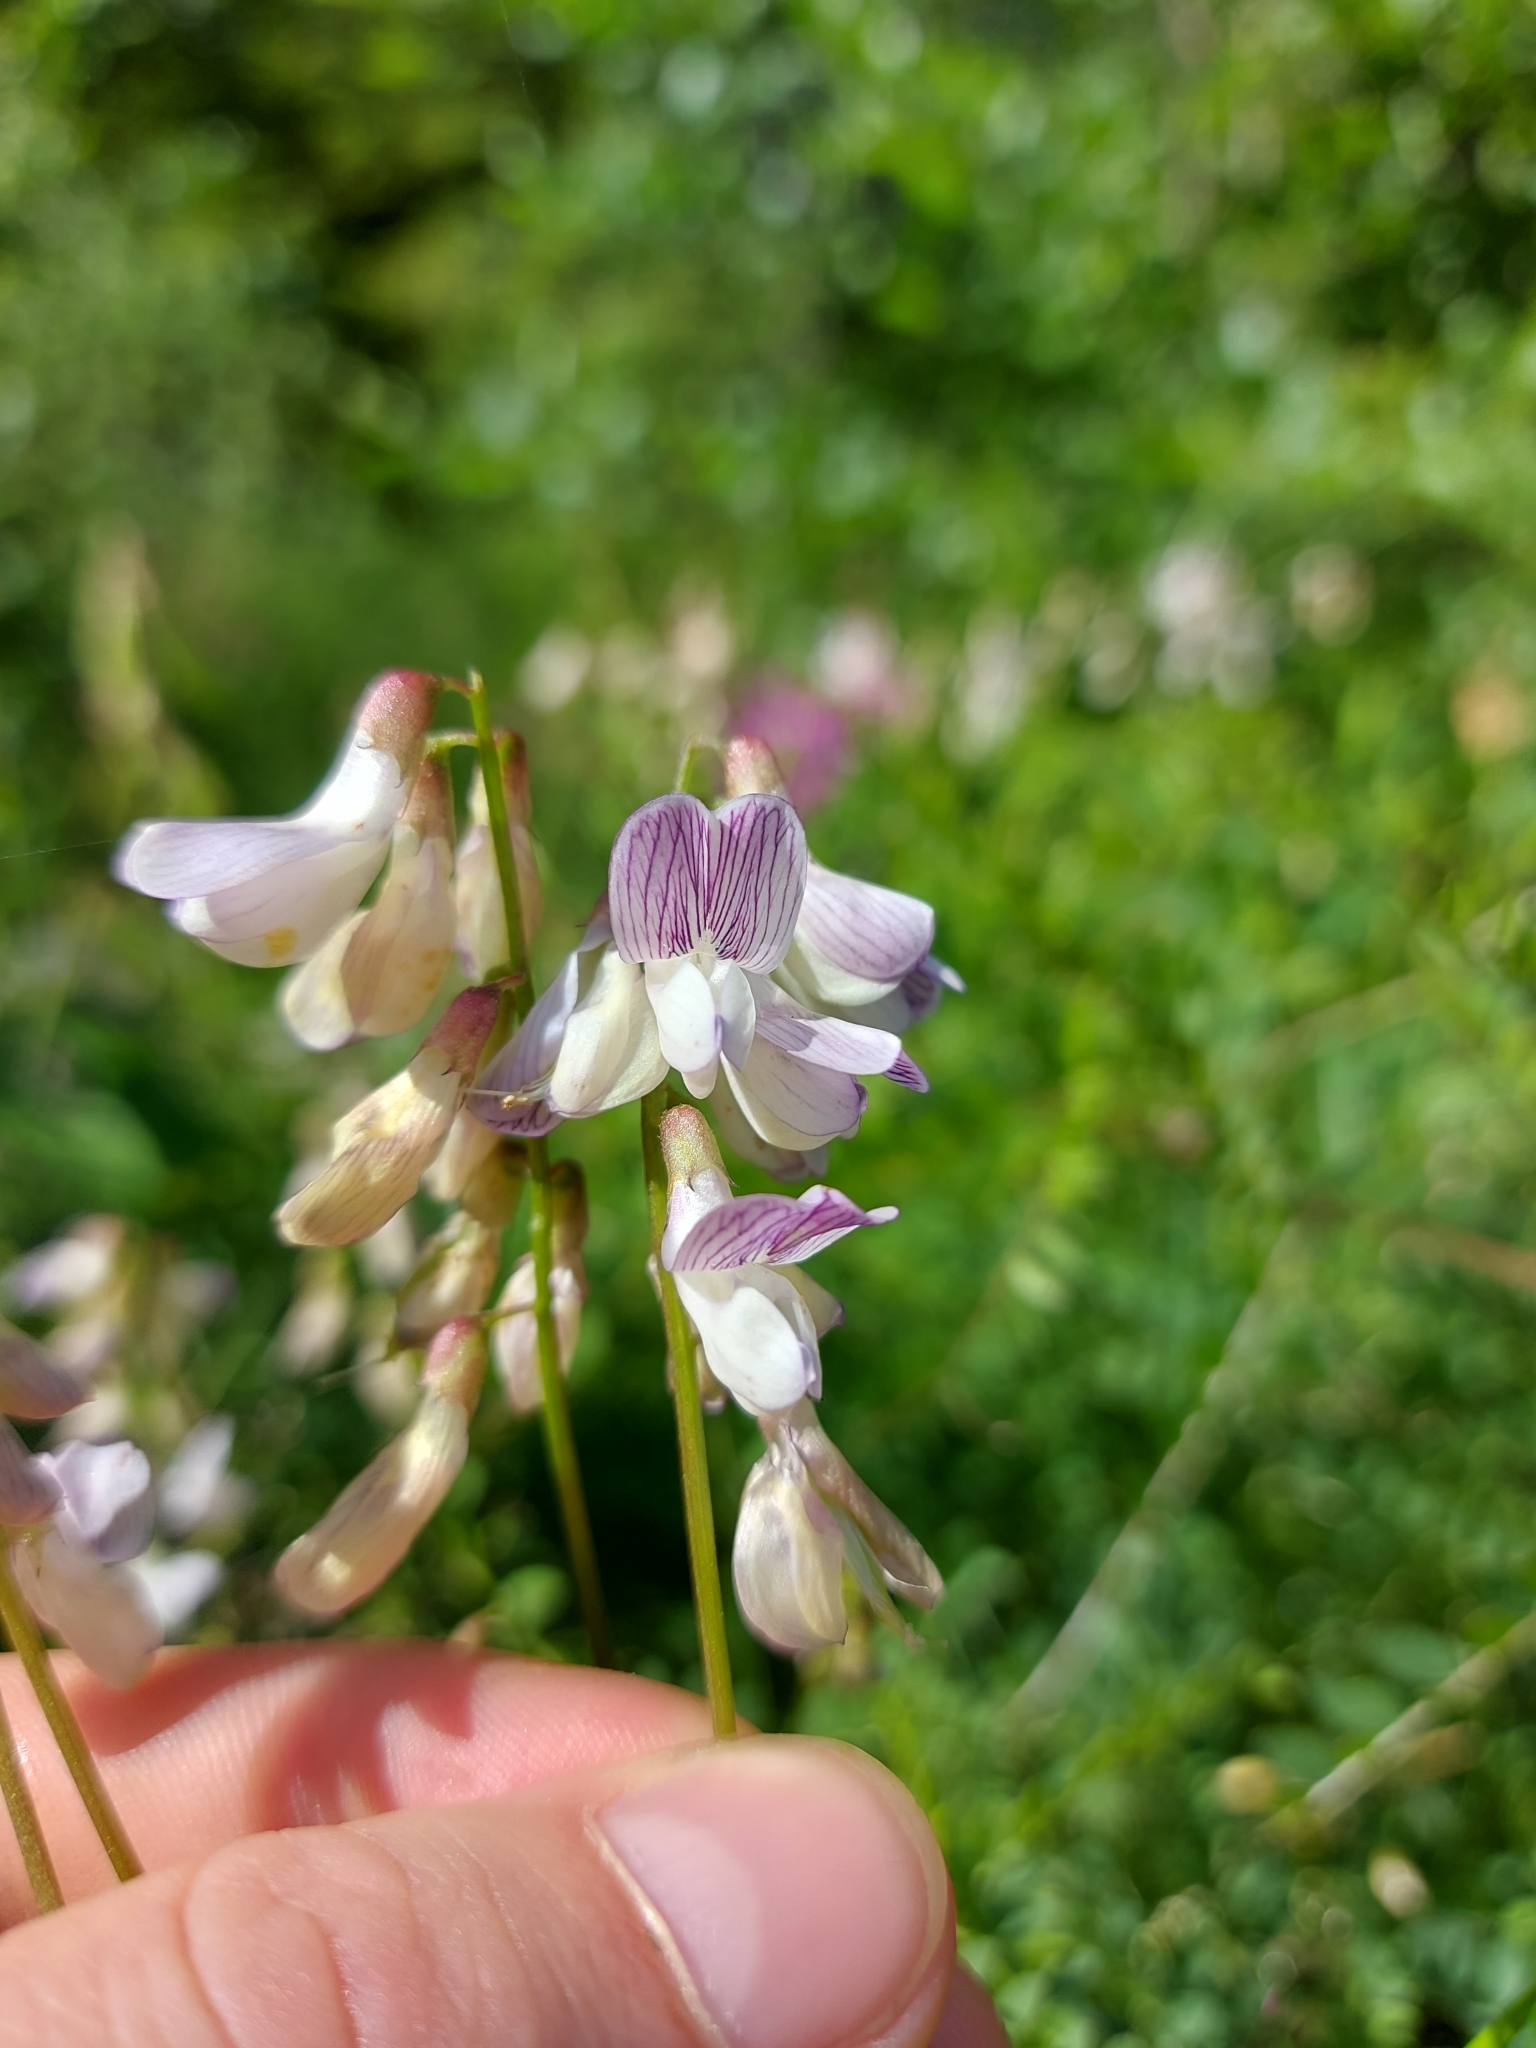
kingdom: Plantae
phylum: Tracheophyta
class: Magnoliopsida
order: Fabales
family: Fabaceae
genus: Vicia
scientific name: Vicia sylvatica
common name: Wood vetch
